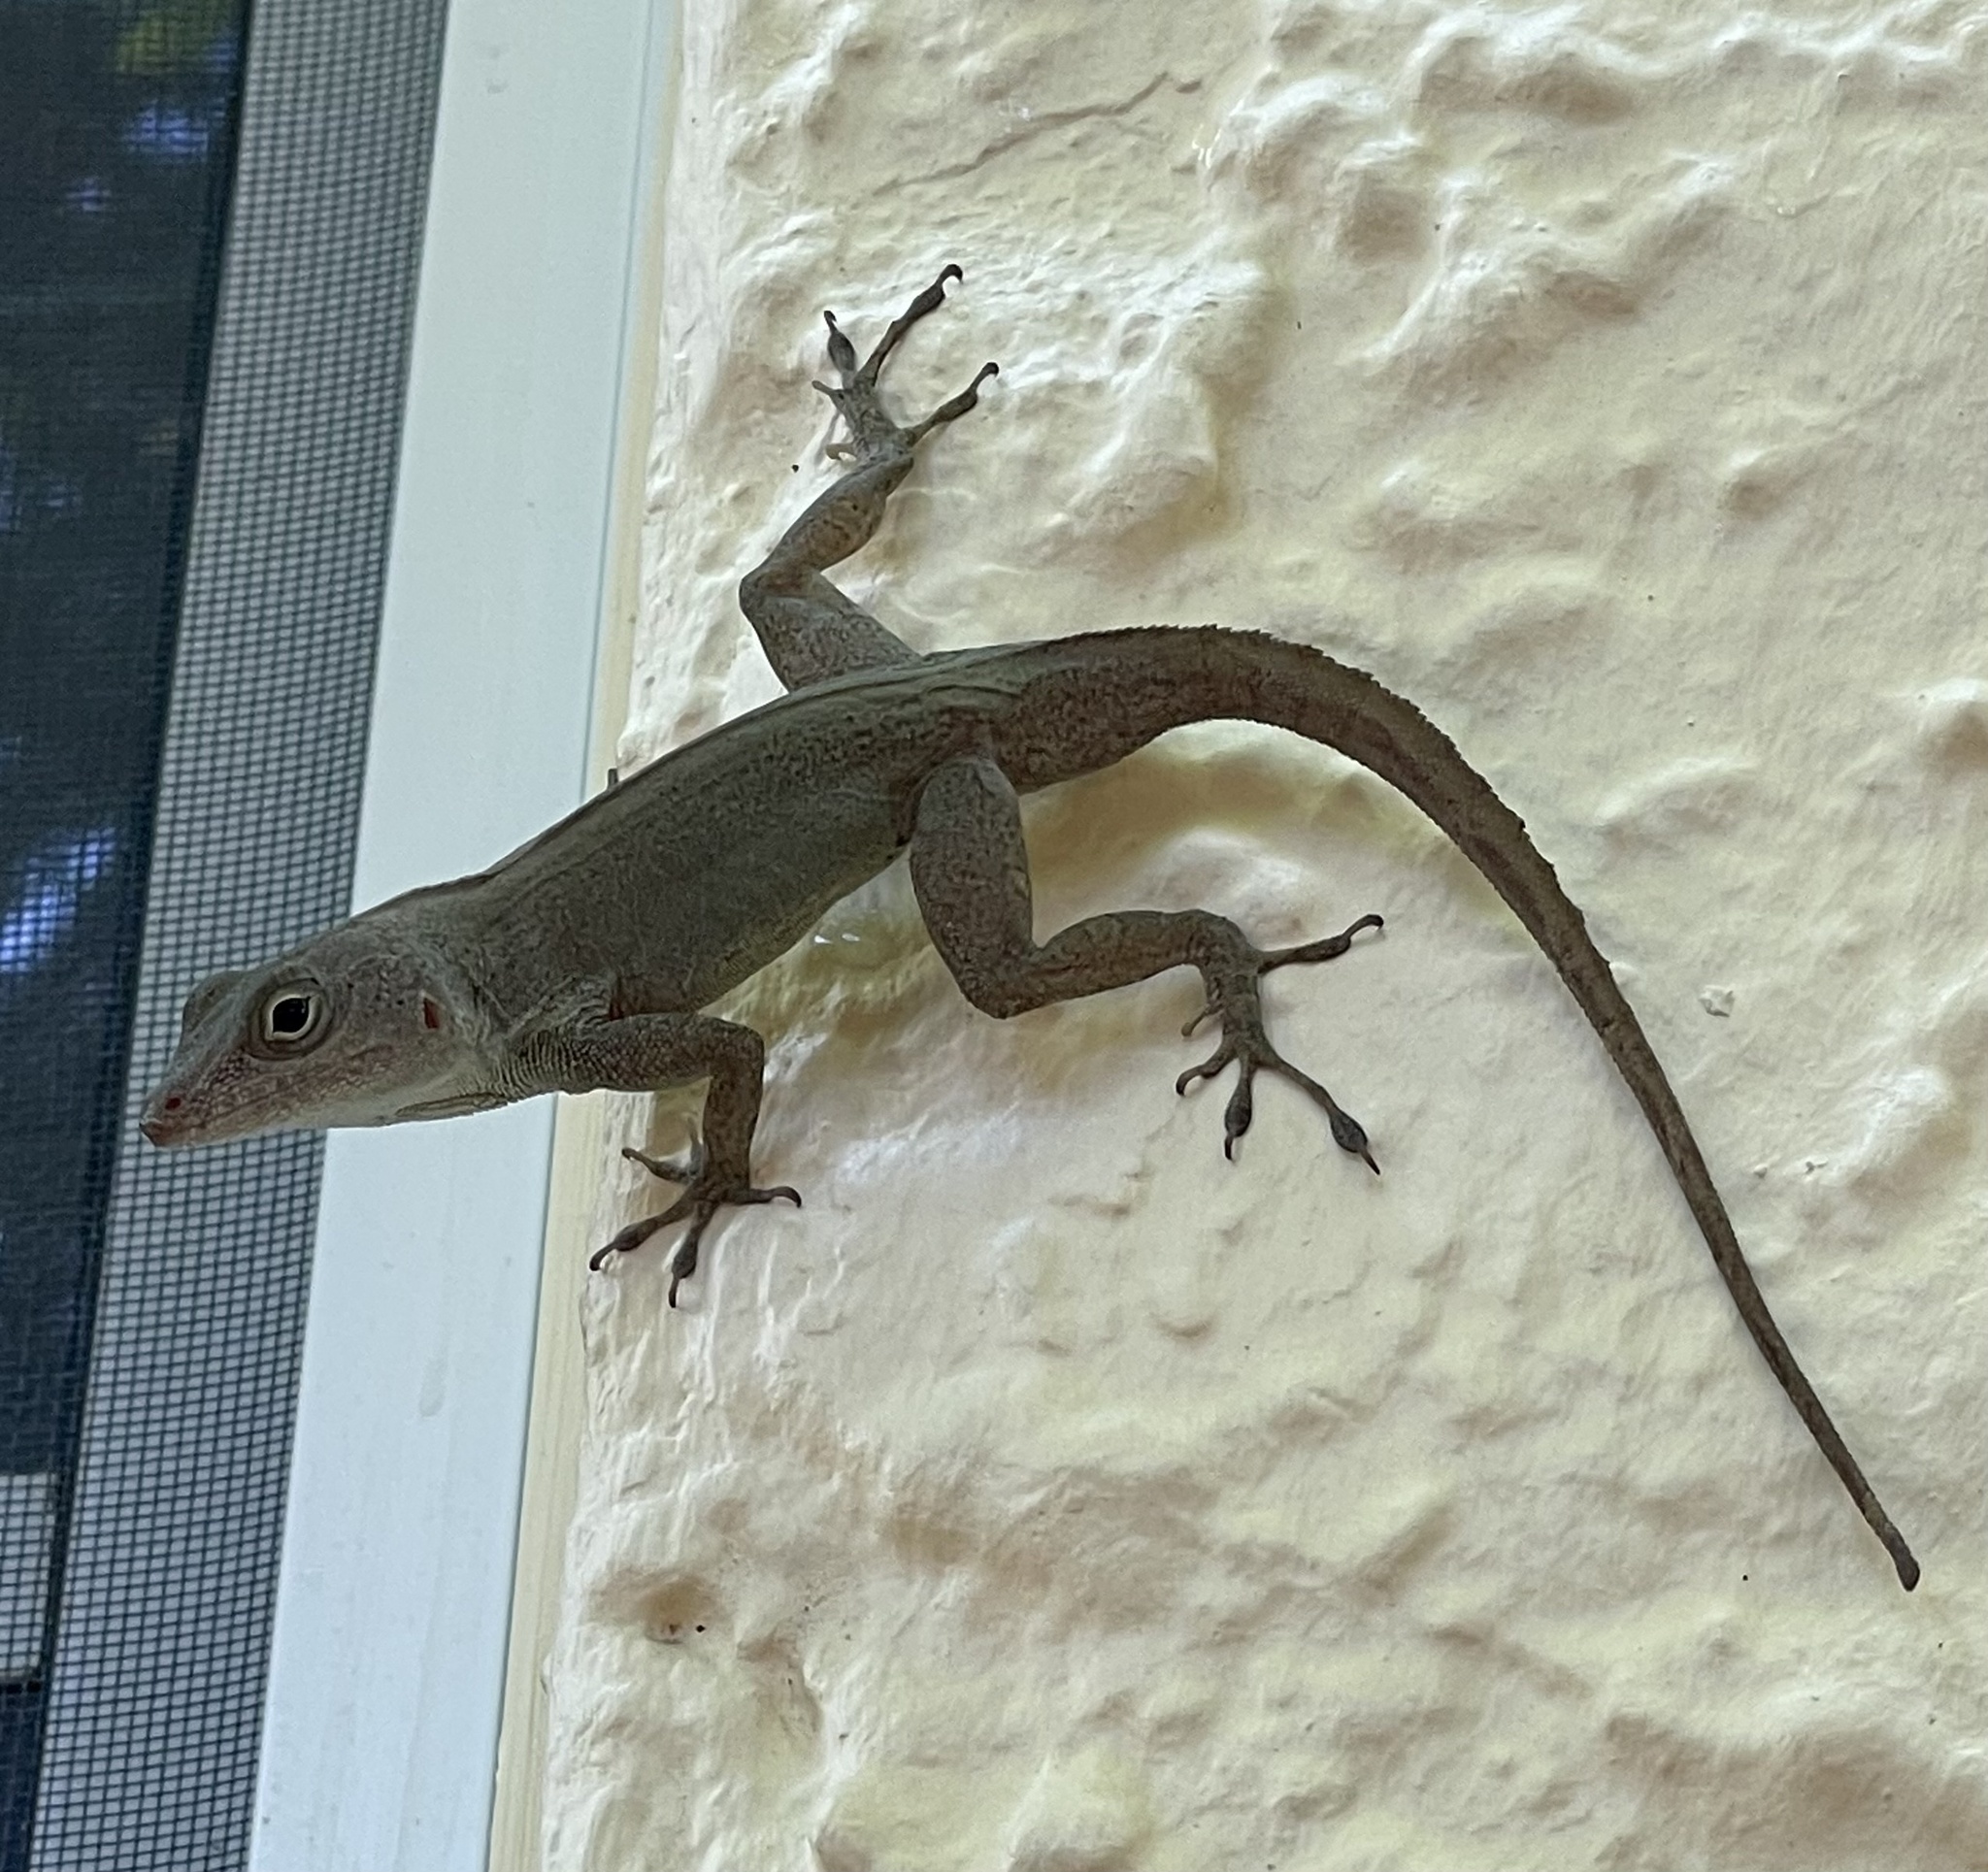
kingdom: Animalia
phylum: Chordata
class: Squamata
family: Dactyloidae
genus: Anolis
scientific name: Anolis cristatellus
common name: Crested anole
